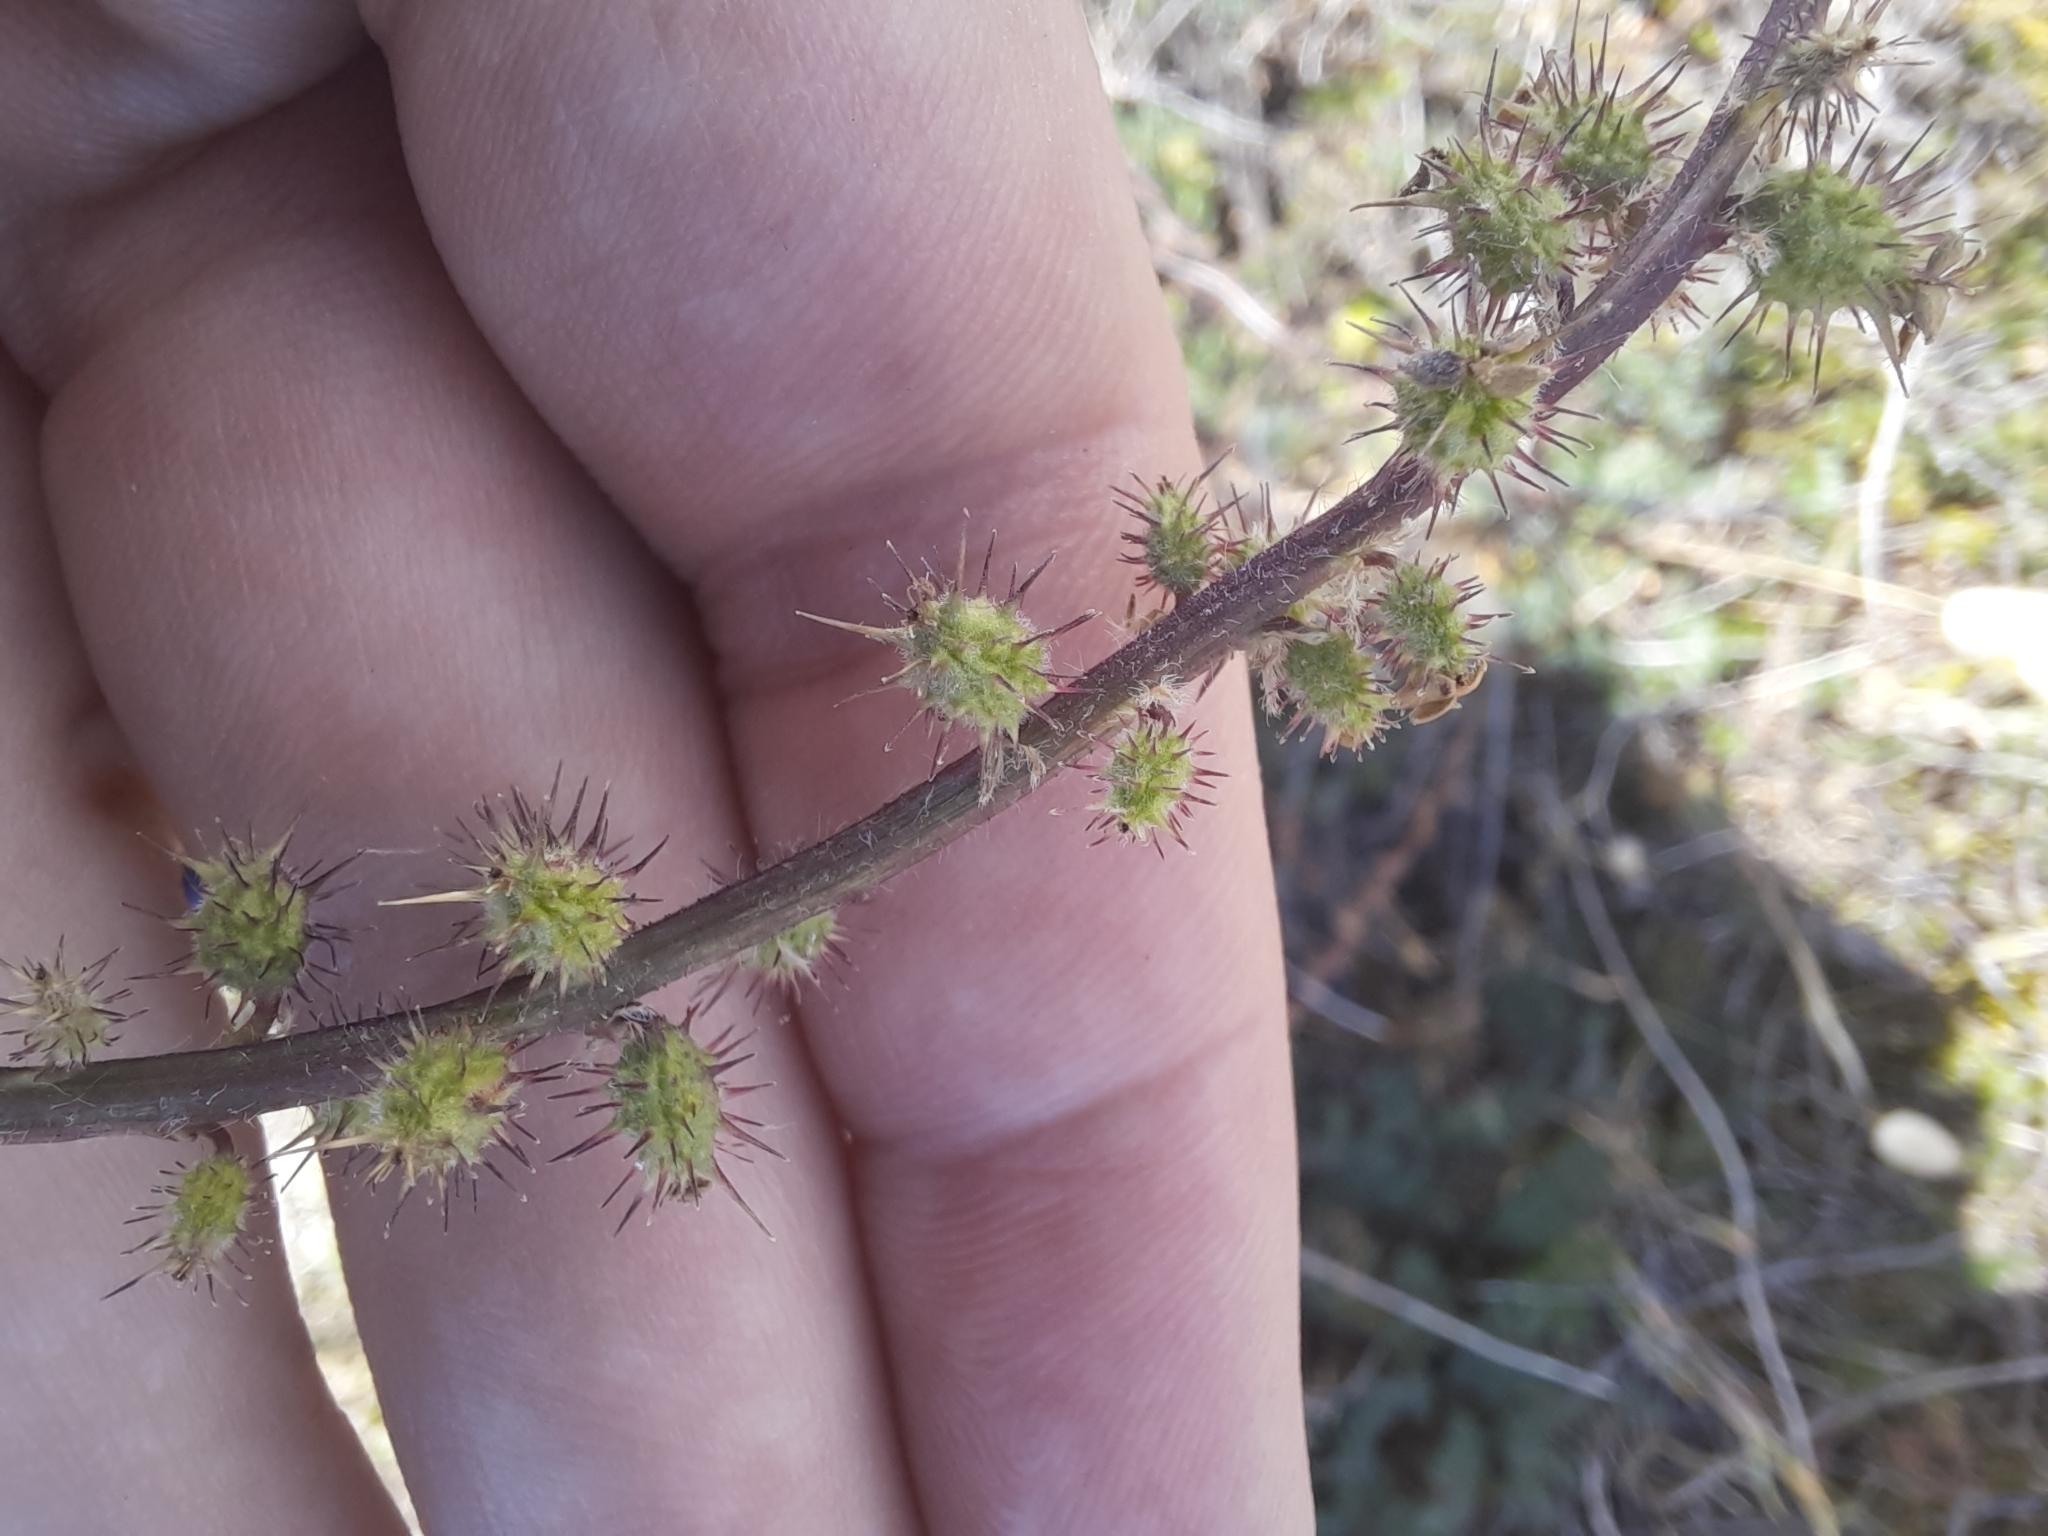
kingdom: Plantae
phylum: Tracheophyta
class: Magnoliopsida
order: Rosales
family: Rosaceae
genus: Acaena
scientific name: Acaena agnipila
